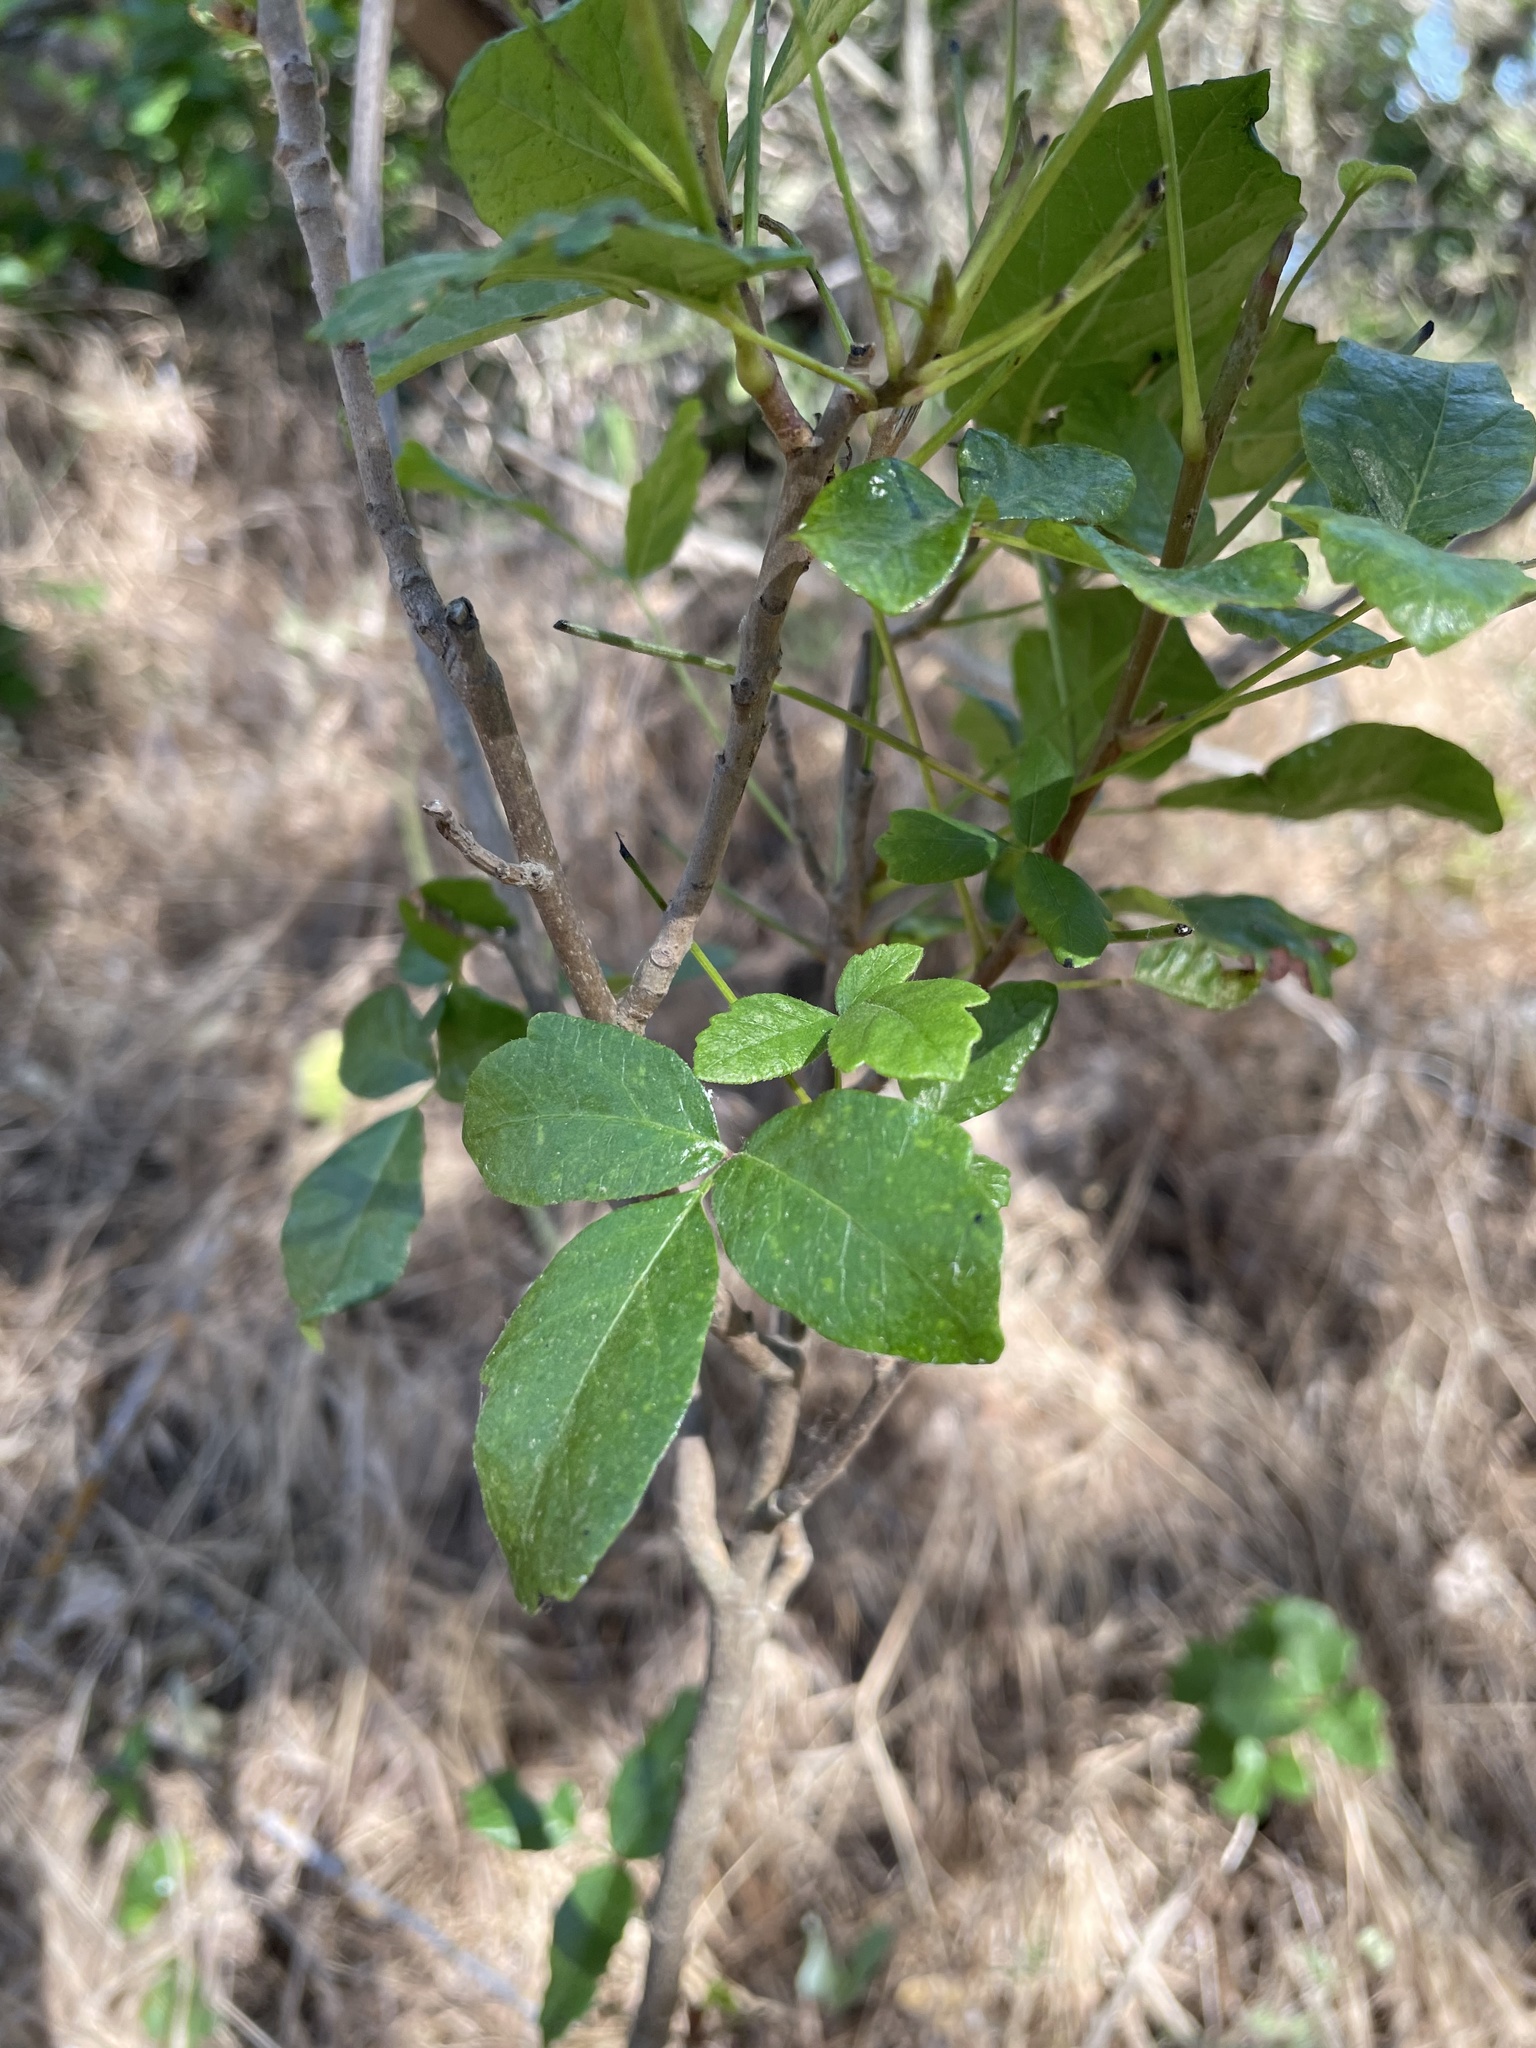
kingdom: Plantae
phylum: Tracheophyta
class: Magnoliopsida
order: Sapindales
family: Anacardiaceae
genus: Toxicodendron
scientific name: Toxicodendron diversilobum
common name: Pacific poison-oak
